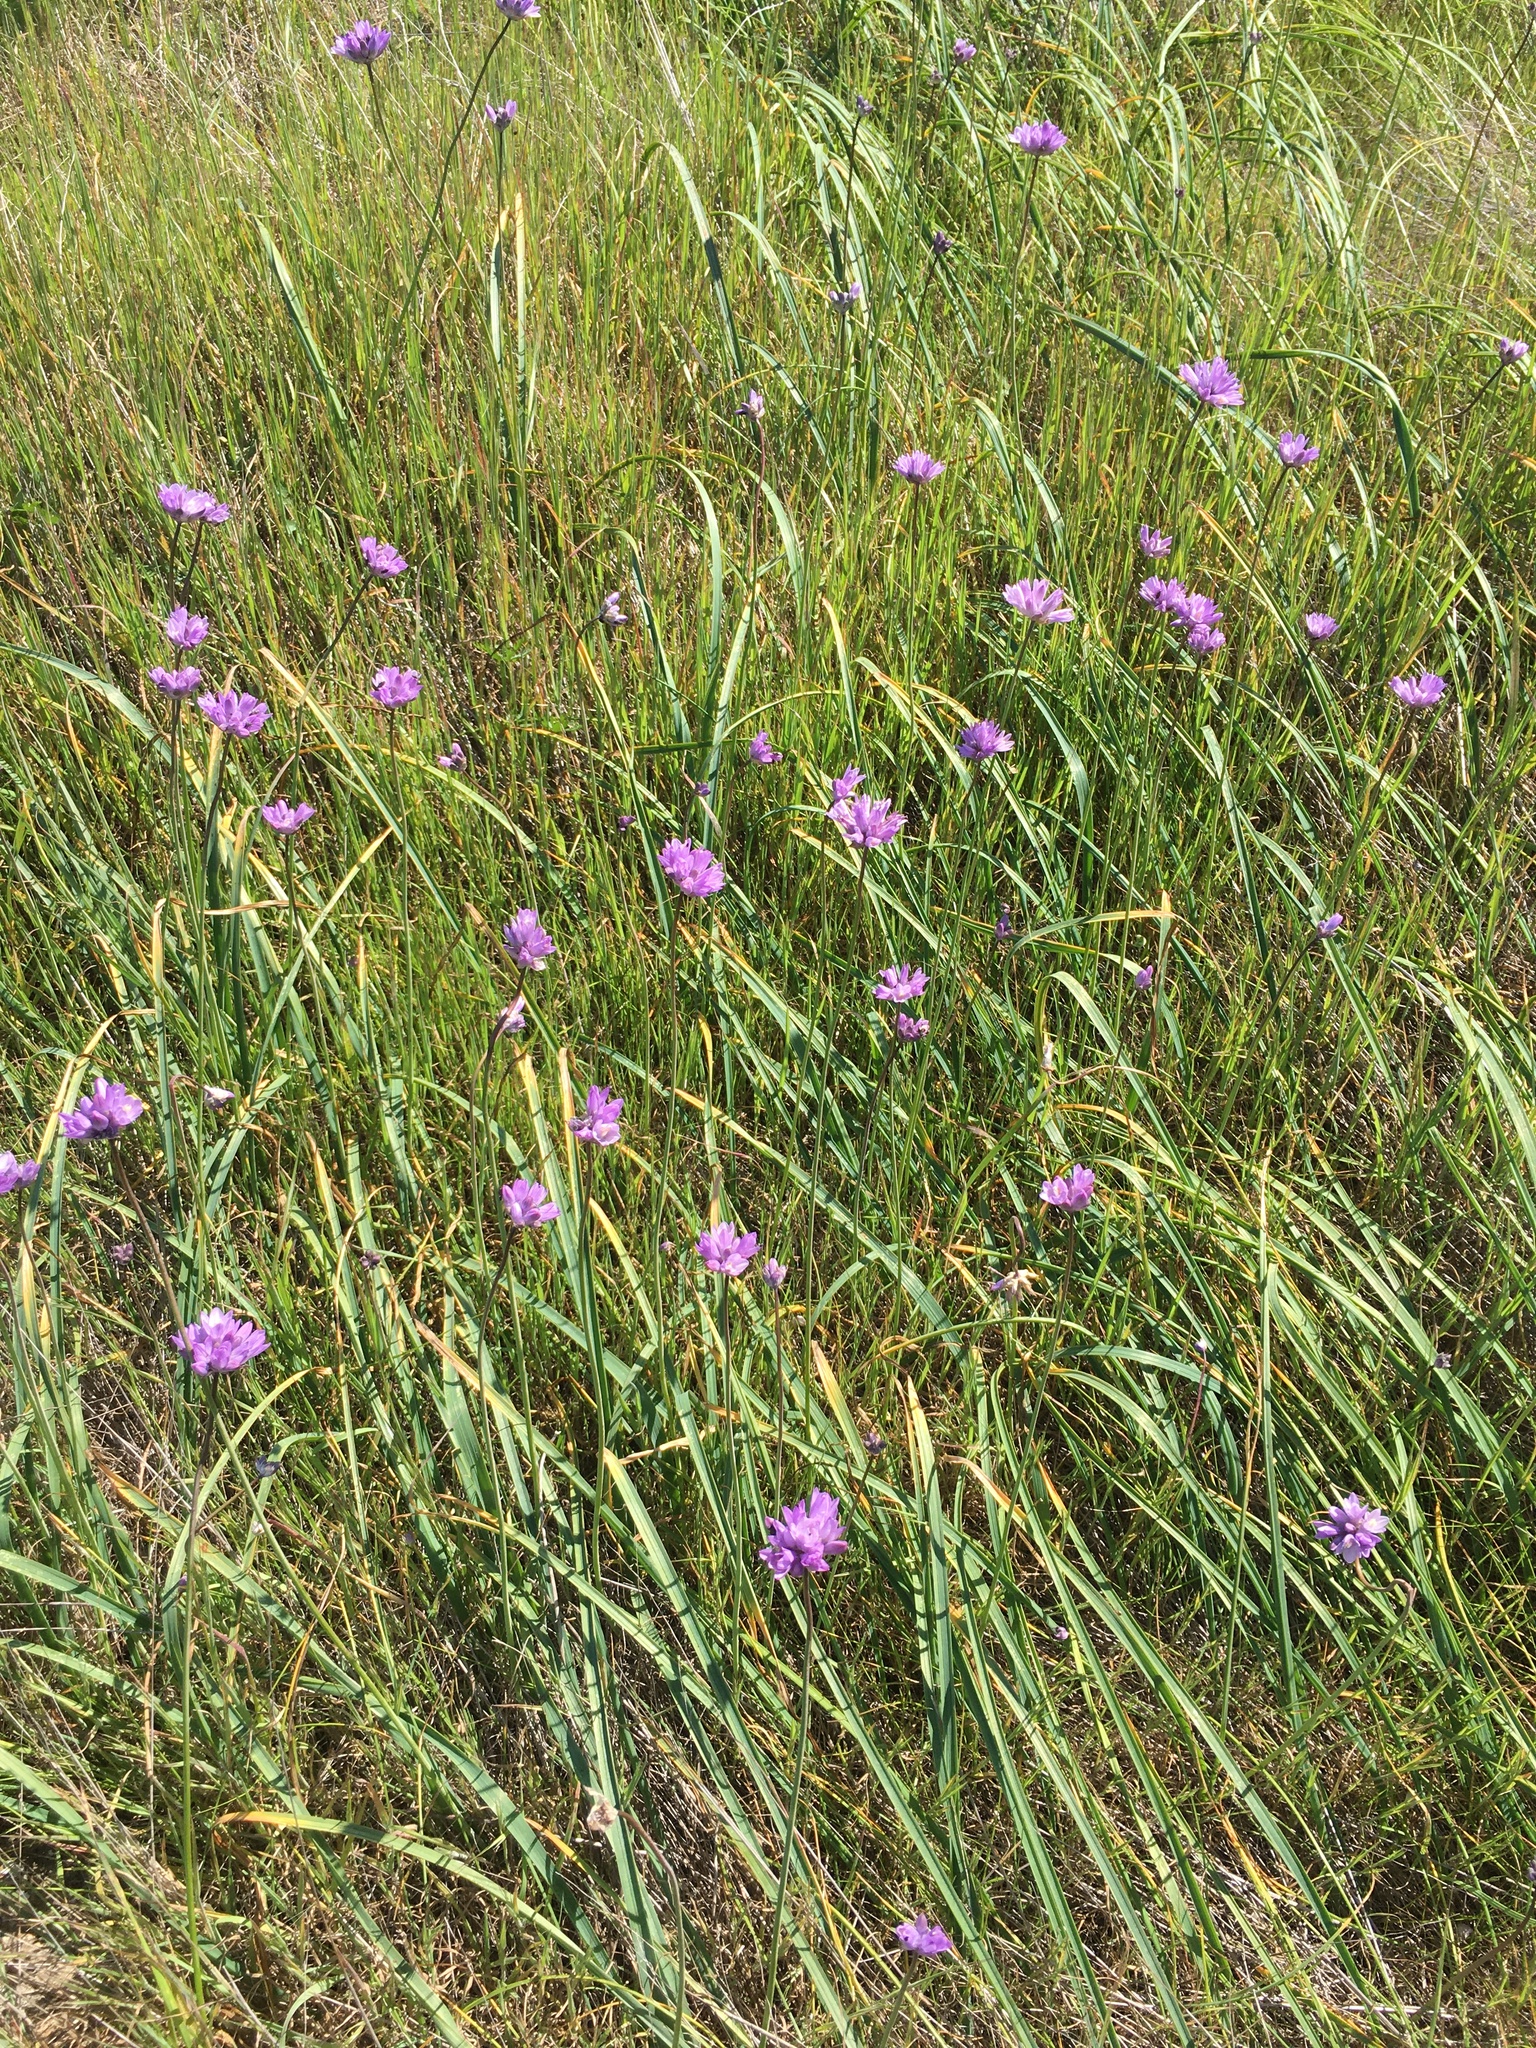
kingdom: Plantae
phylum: Tracheophyta
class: Liliopsida
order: Asparagales
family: Asparagaceae
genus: Dipterostemon
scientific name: Dipterostemon capitatus
